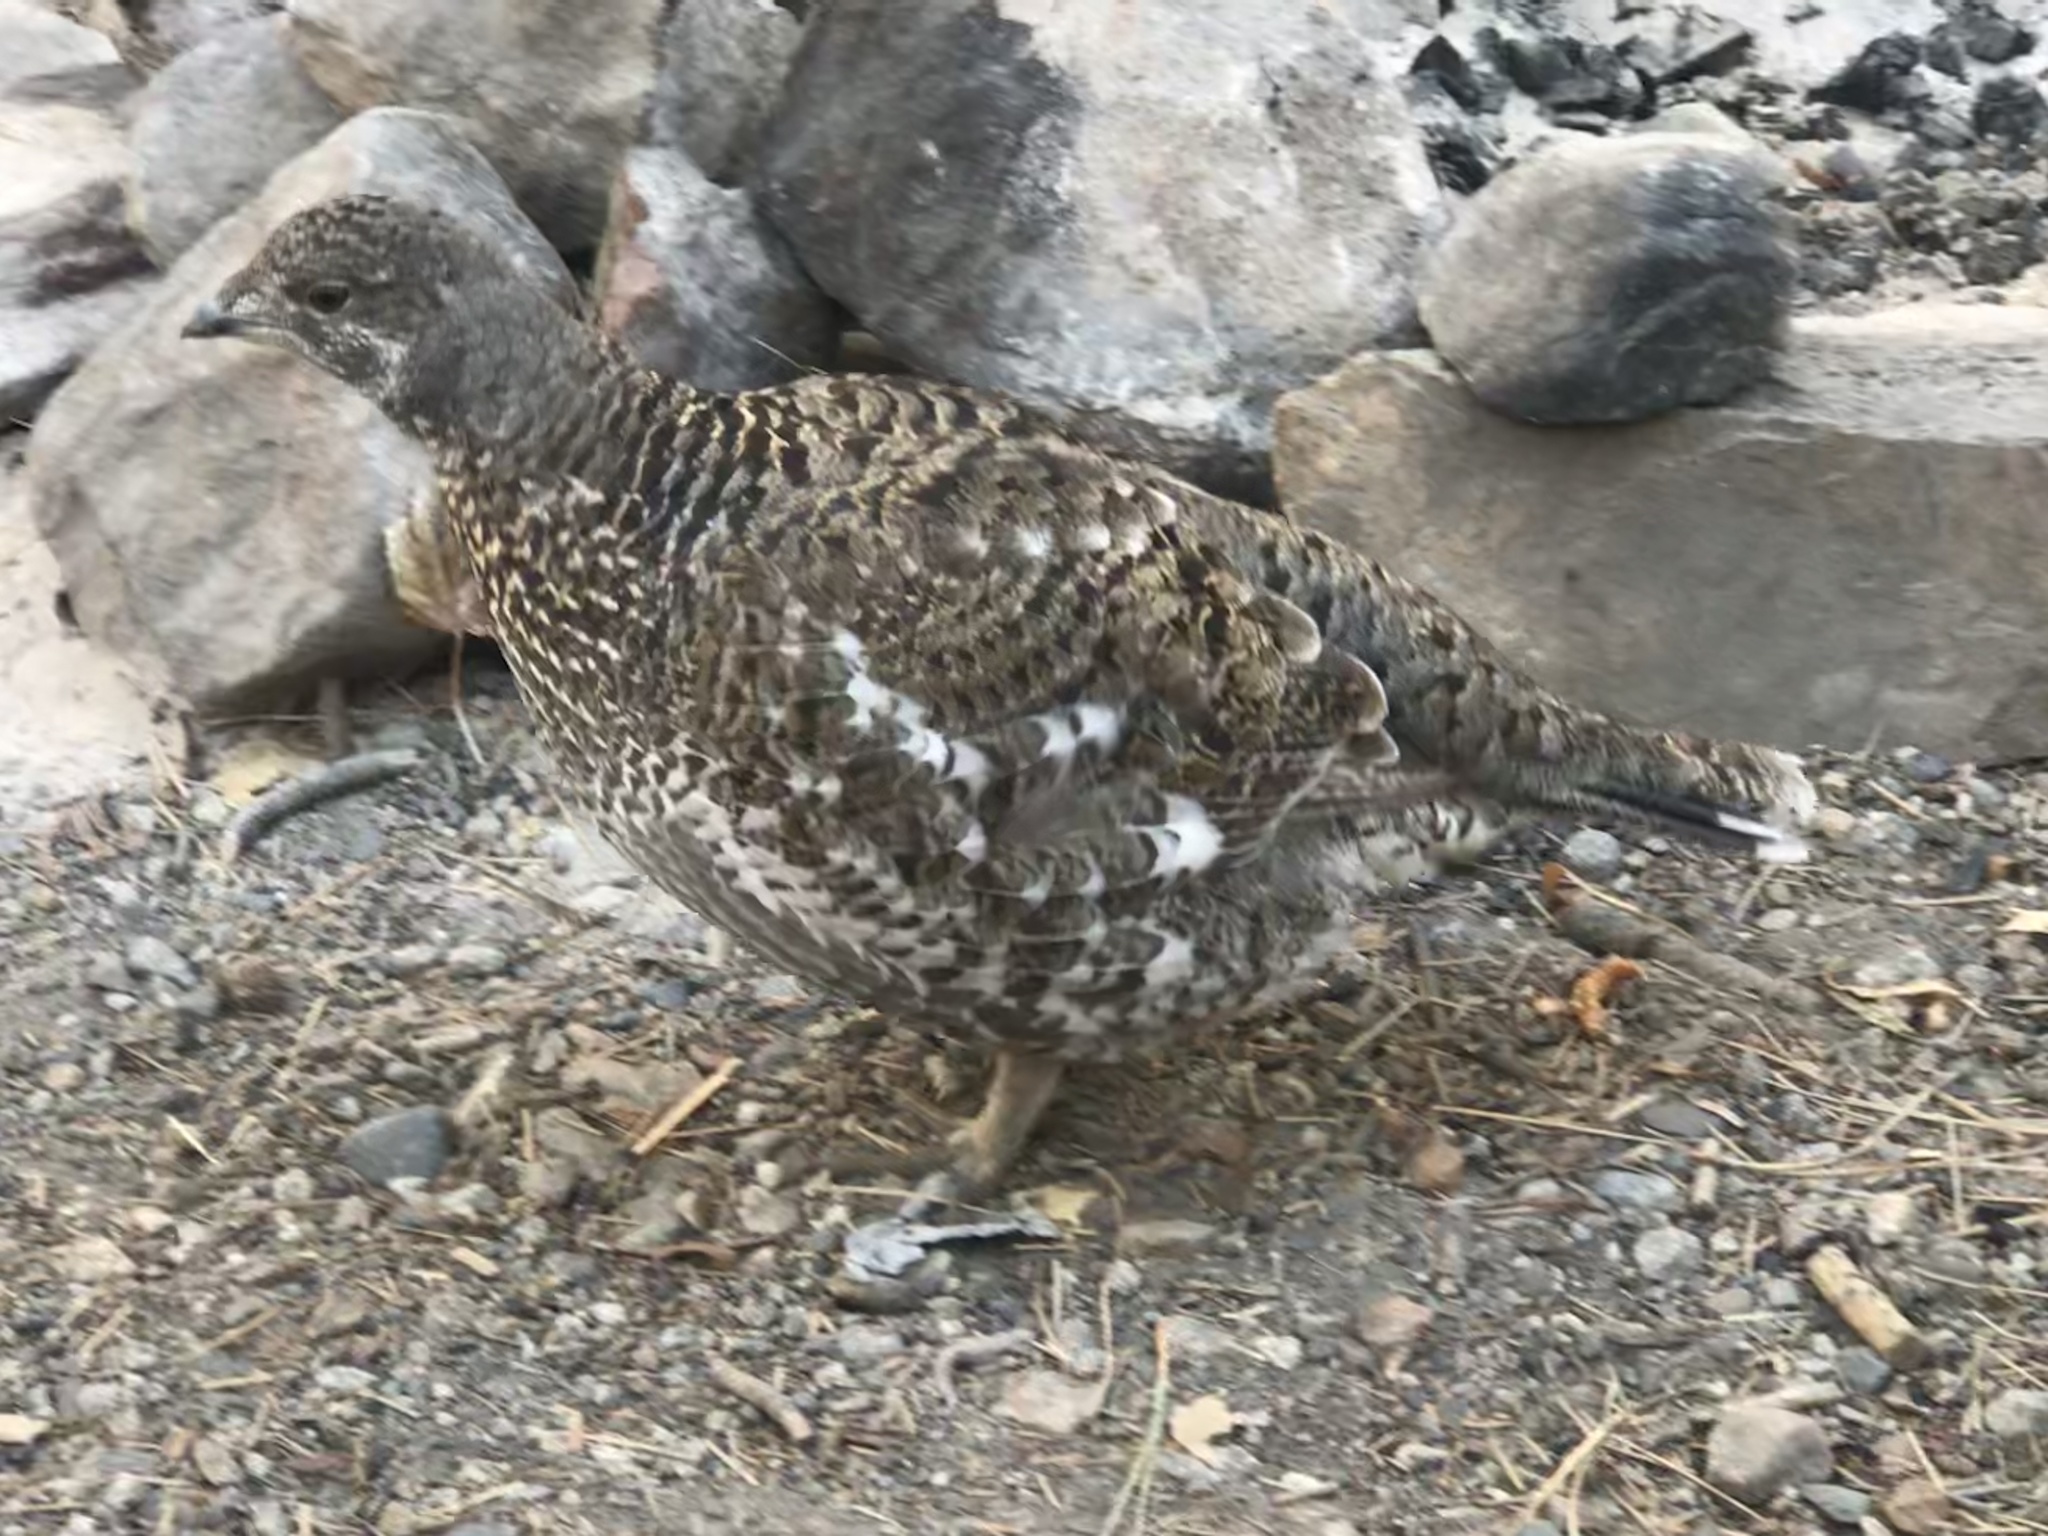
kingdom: Animalia
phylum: Chordata
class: Aves
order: Galliformes
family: Phasianidae
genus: Dendragapus
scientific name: Dendragapus fuliginosus
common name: Sooty grouse
